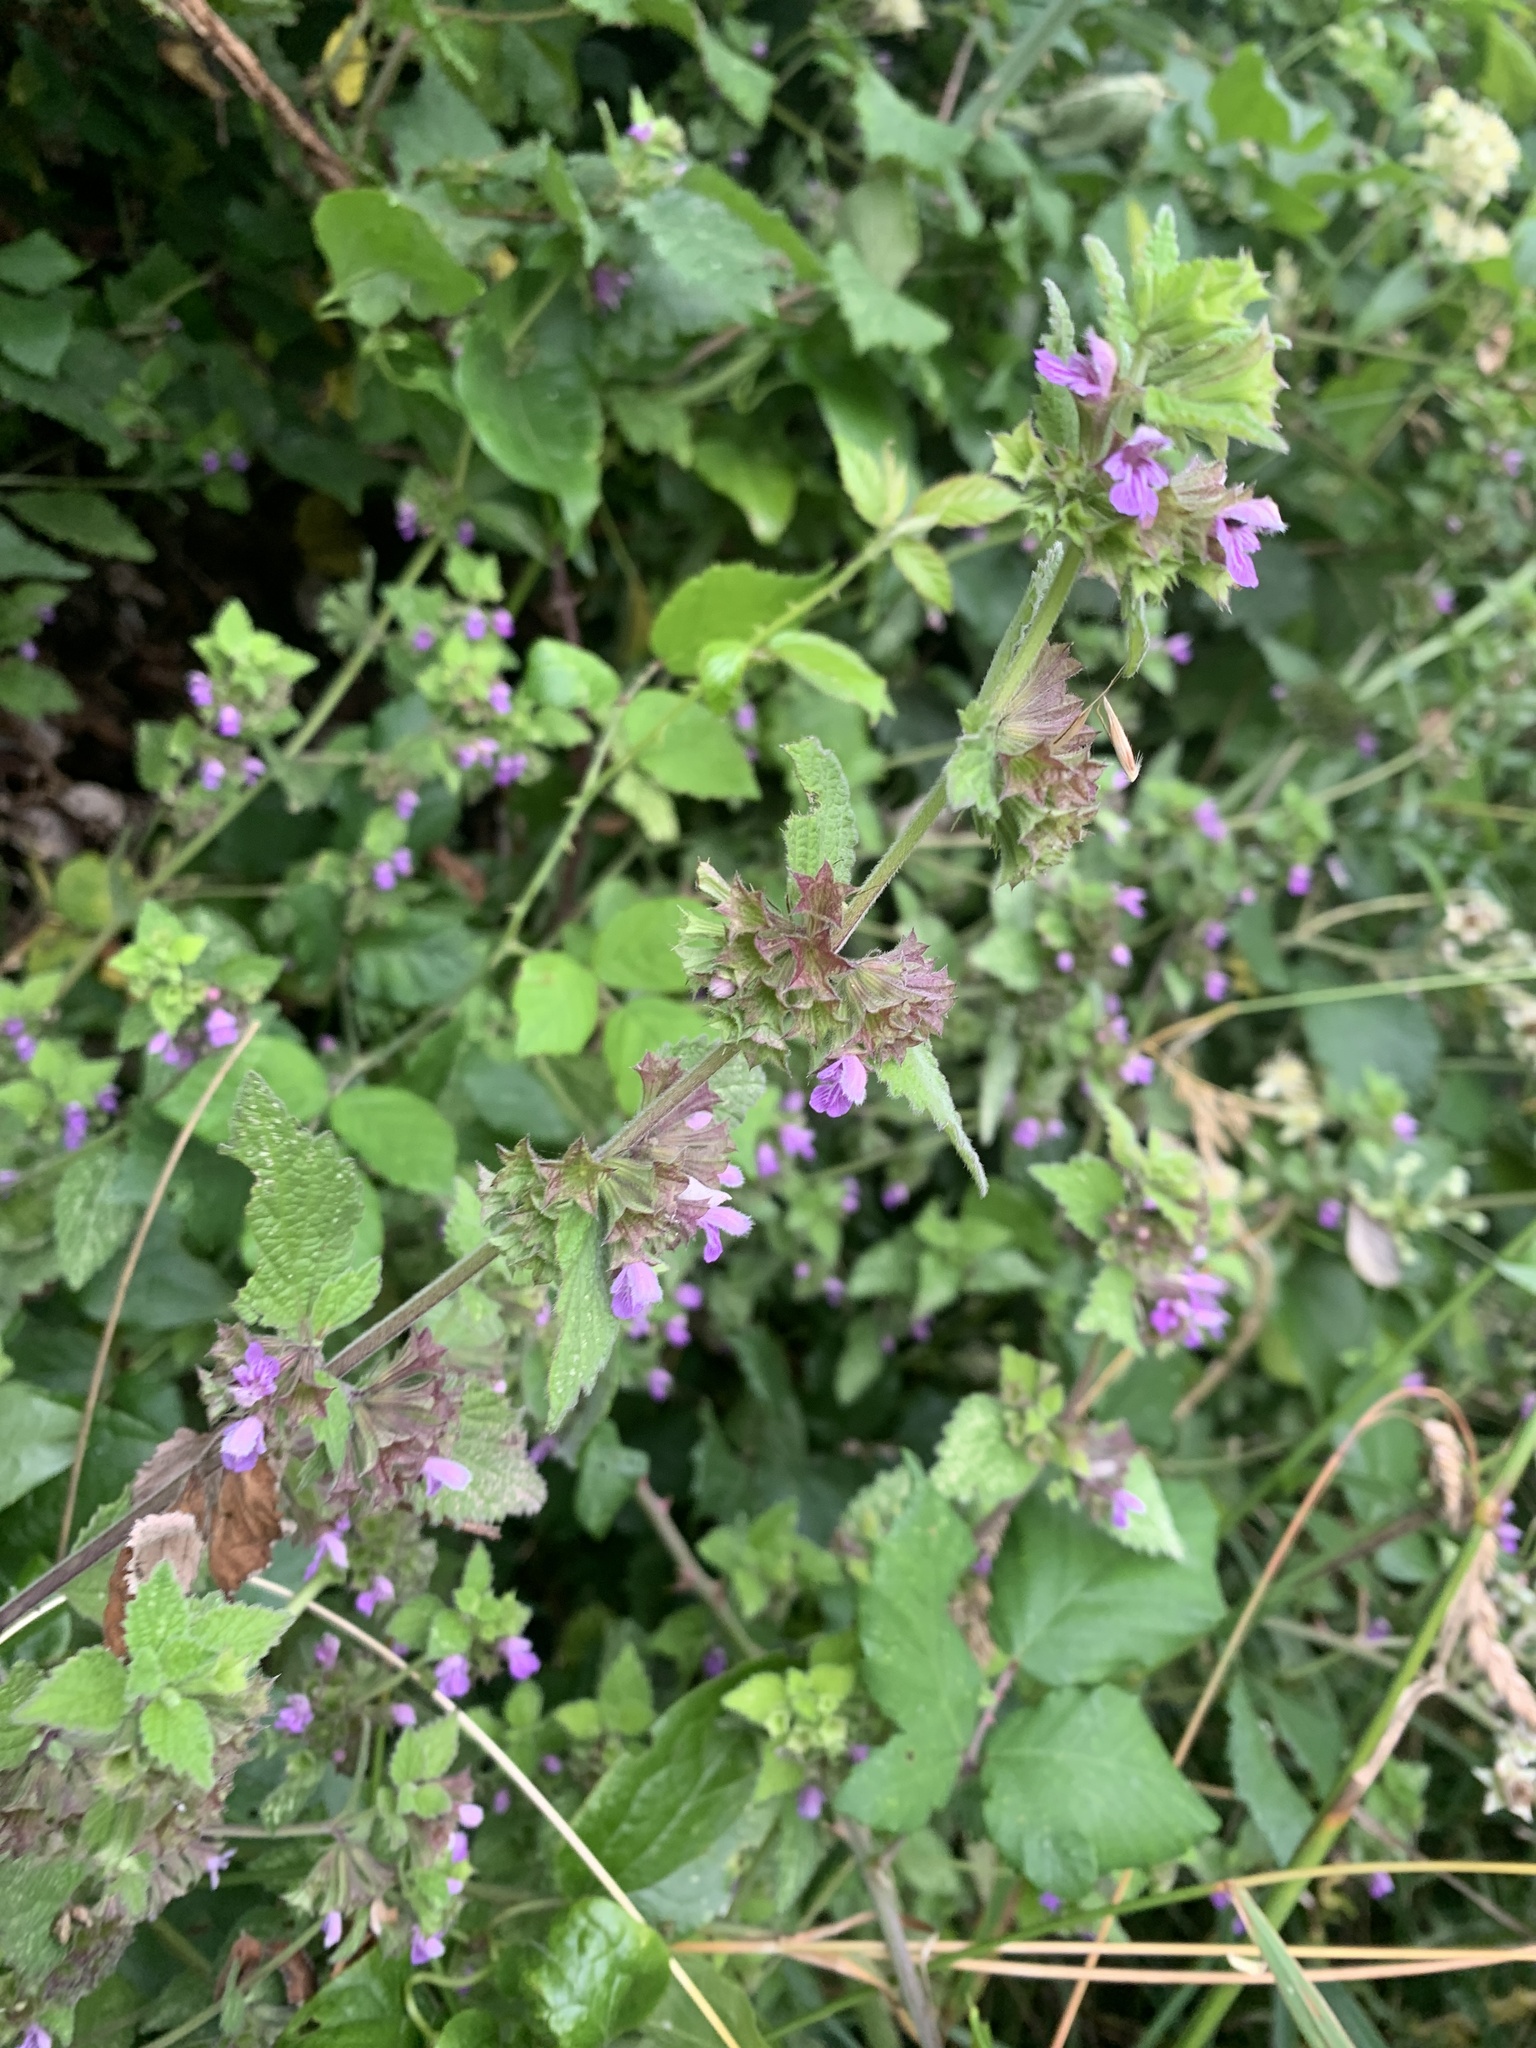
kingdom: Plantae
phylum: Tracheophyta
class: Magnoliopsida
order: Lamiales
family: Lamiaceae
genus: Ballota
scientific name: Ballota nigra
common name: Black horehound
